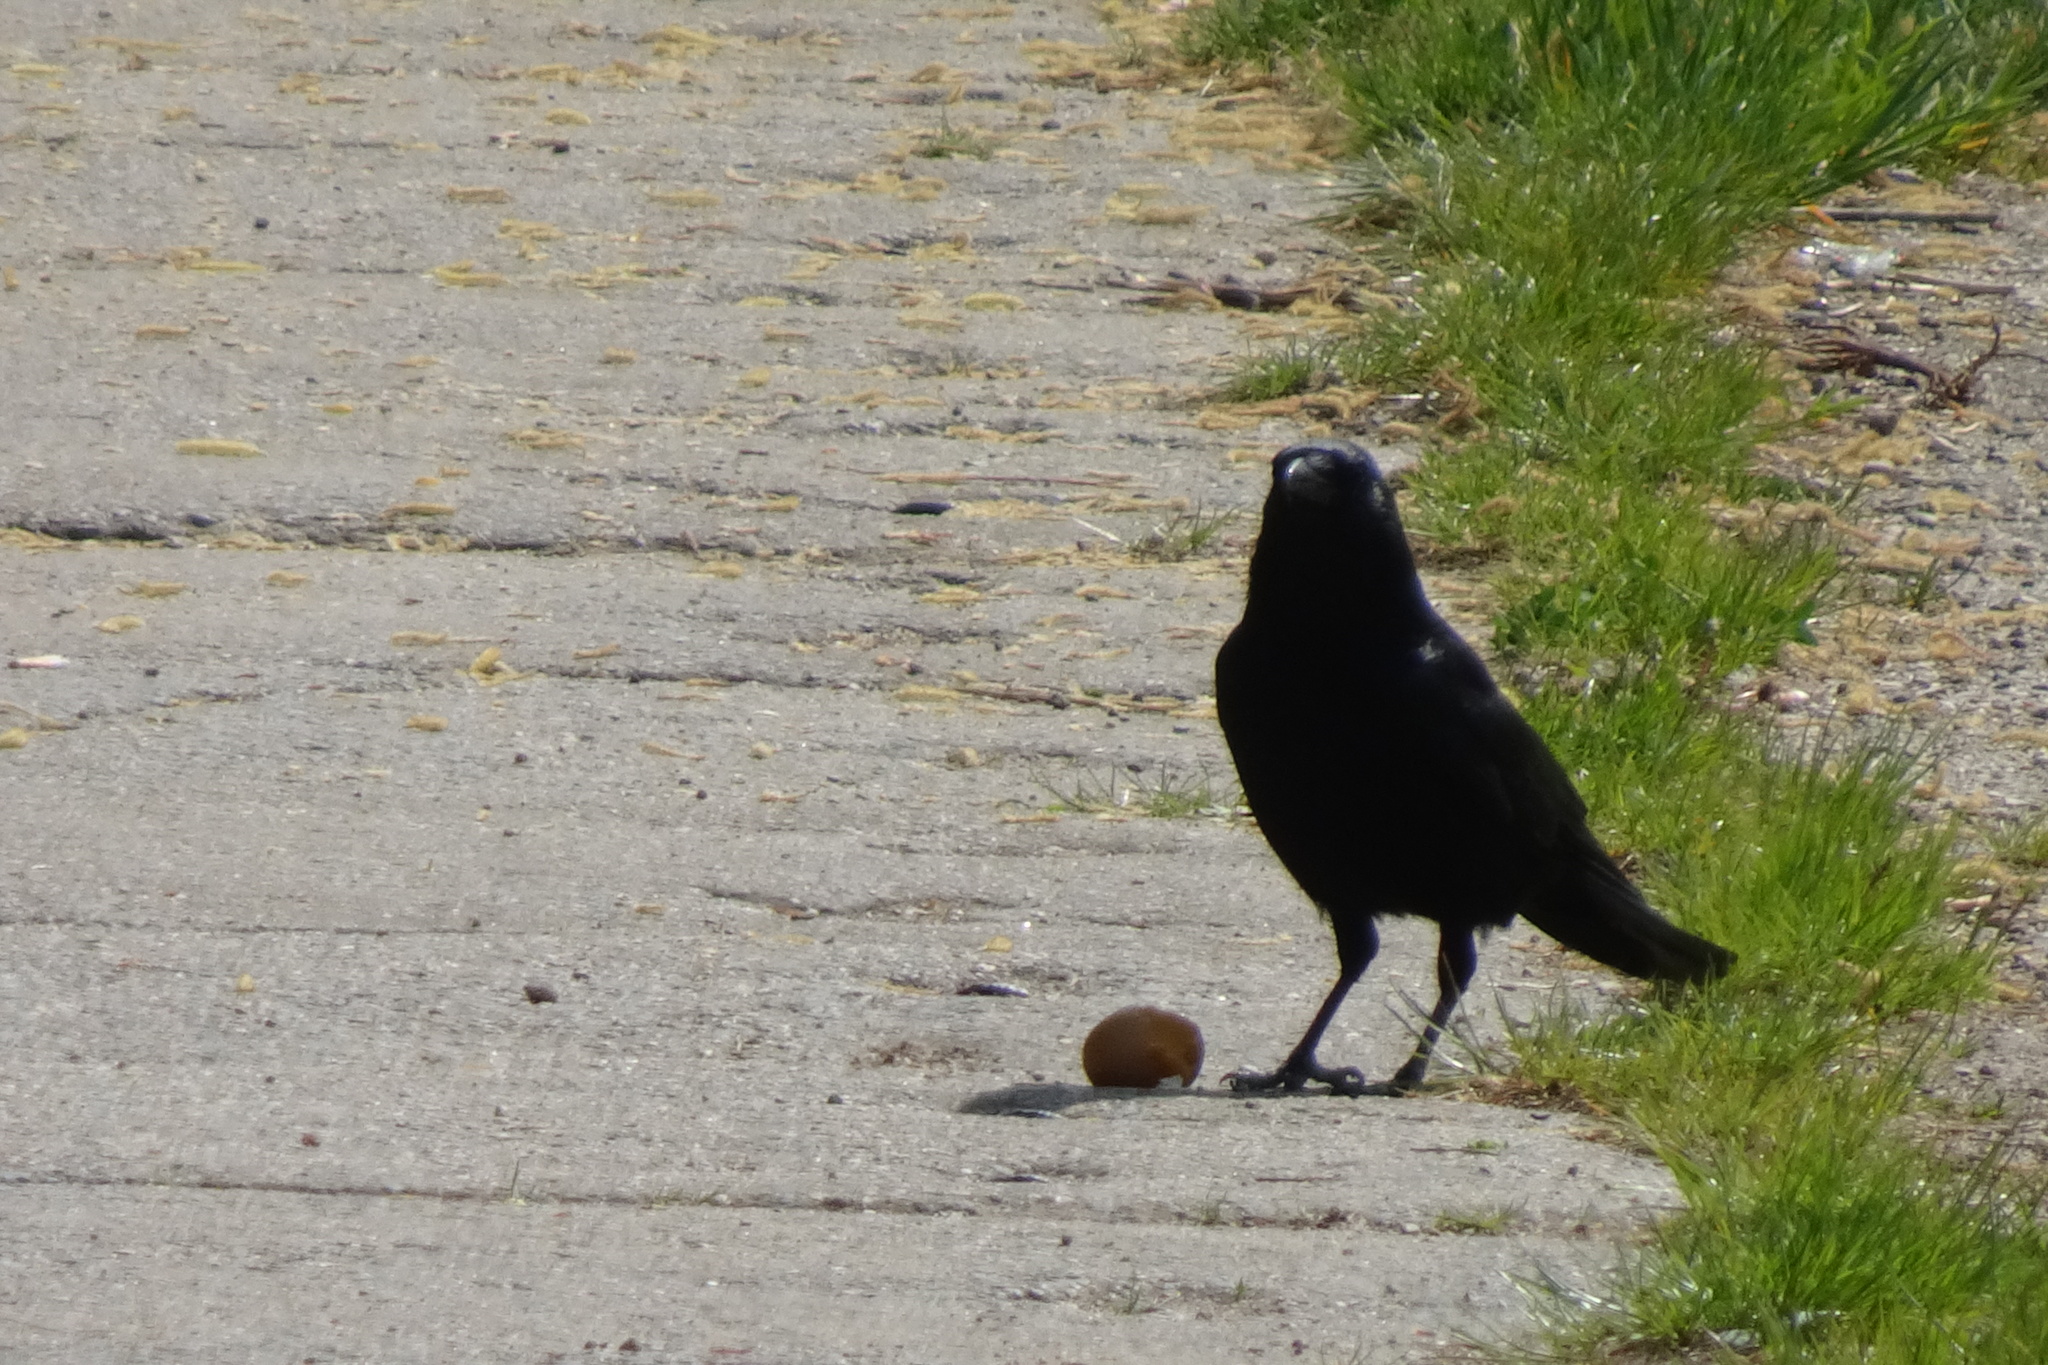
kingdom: Animalia
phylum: Chordata
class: Aves
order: Passeriformes
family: Corvidae
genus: Corvus
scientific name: Corvus corone
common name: Carrion crow
